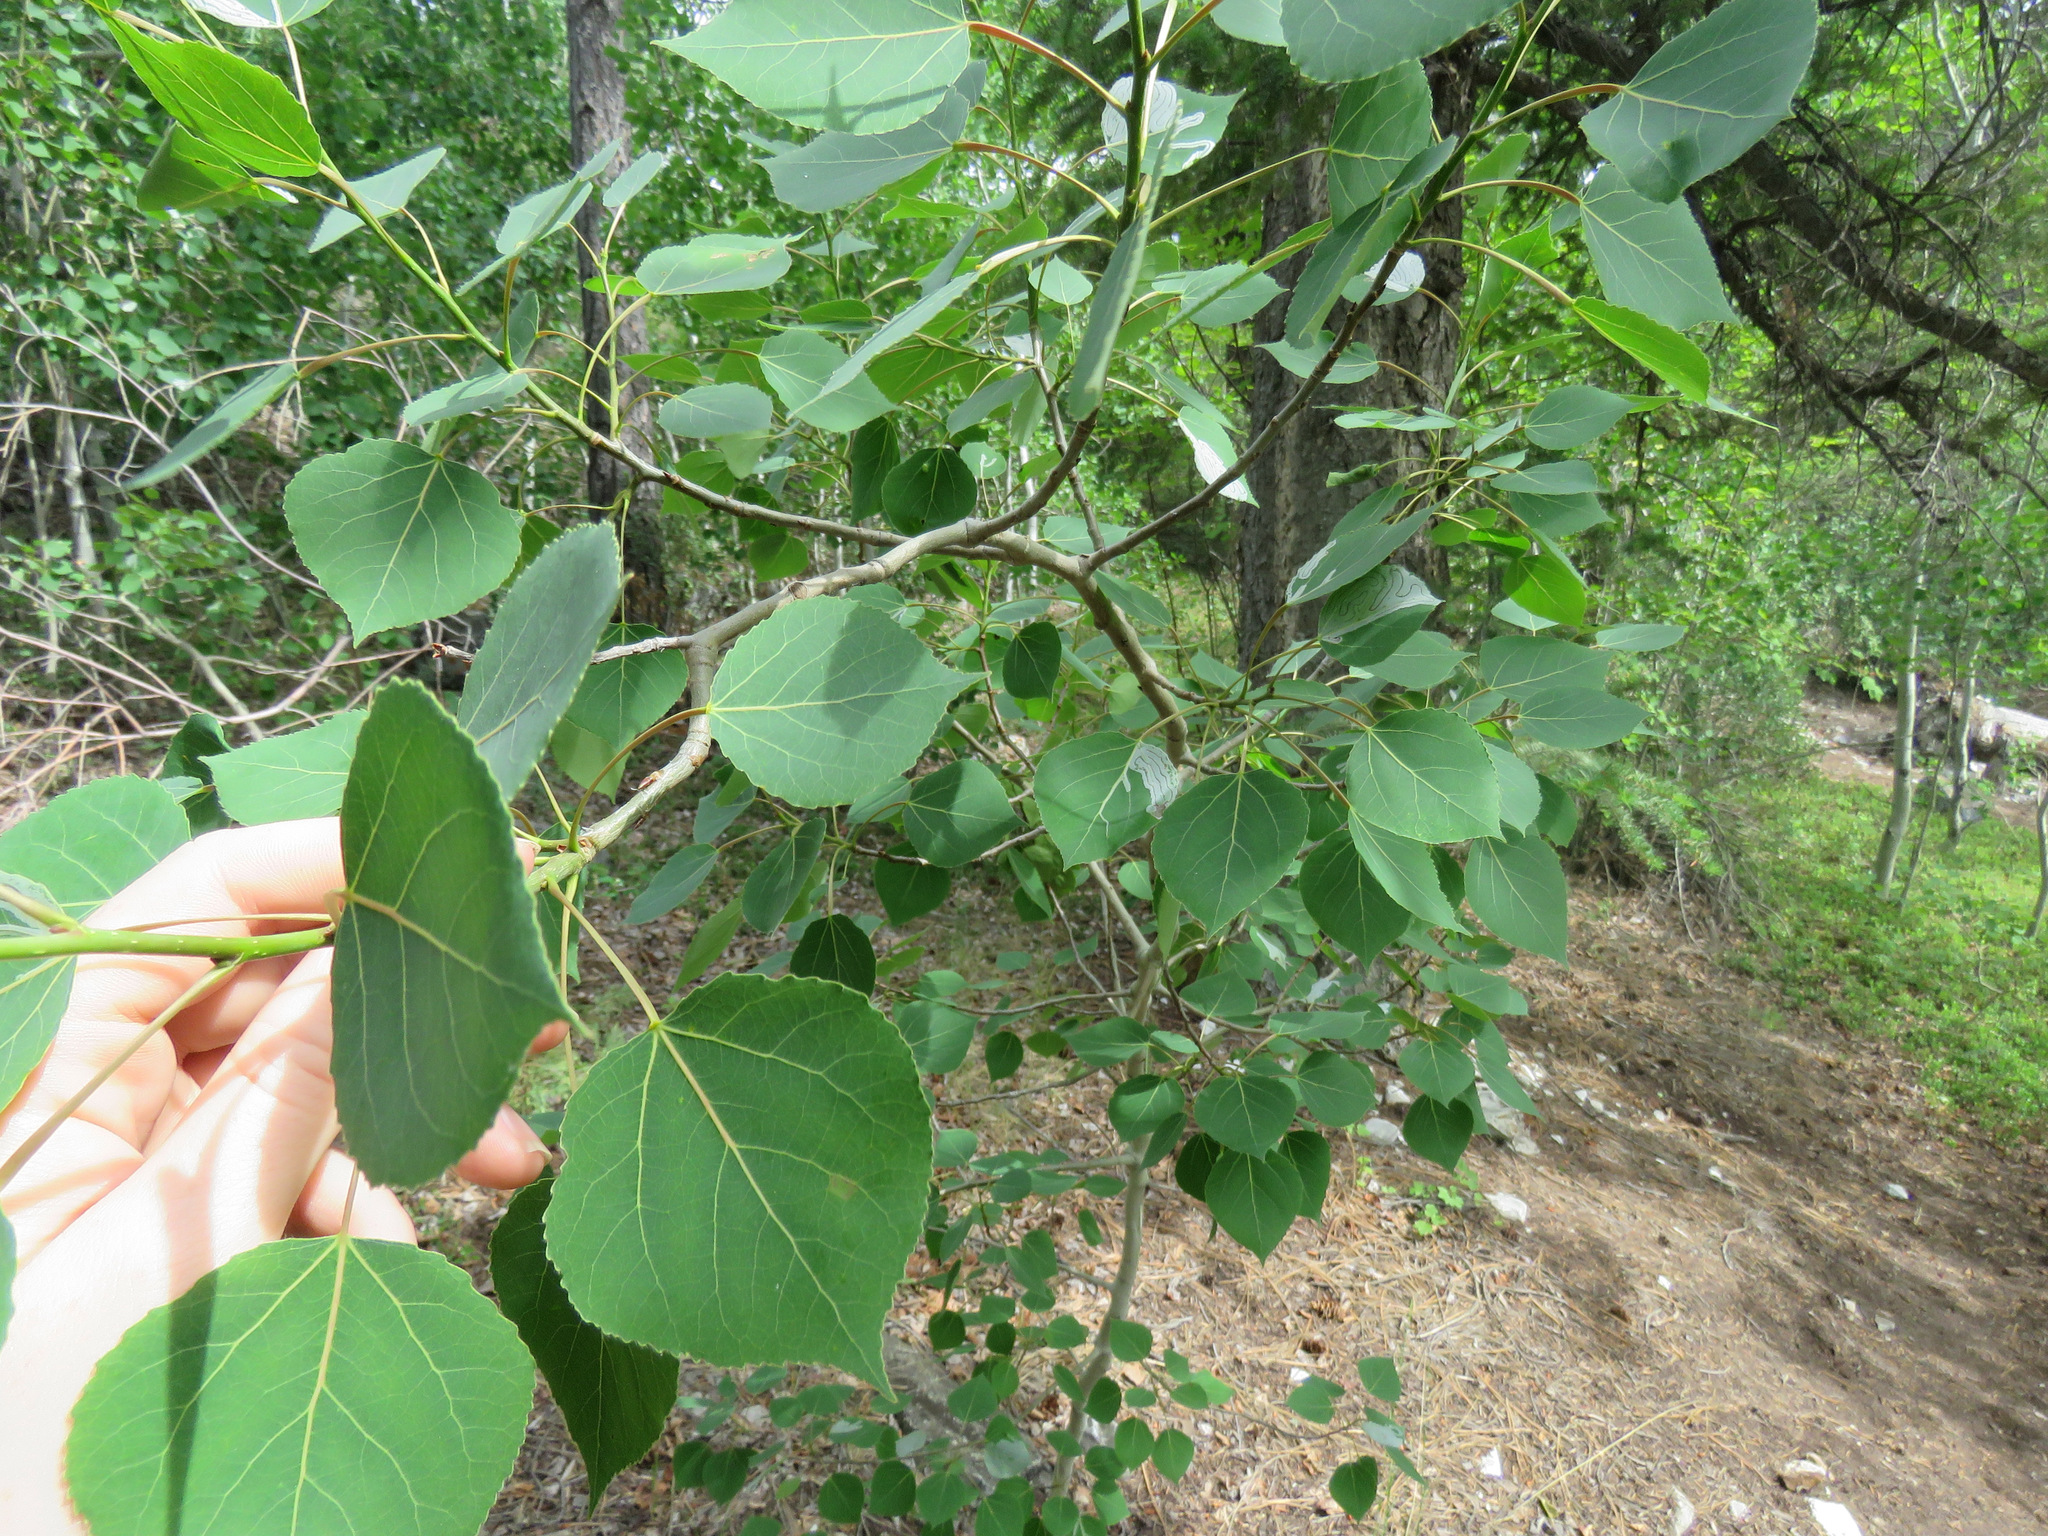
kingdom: Plantae
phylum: Tracheophyta
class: Magnoliopsida
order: Malpighiales
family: Salicaceae
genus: Populus
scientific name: Populus tremuloides
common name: Quaking aspen
